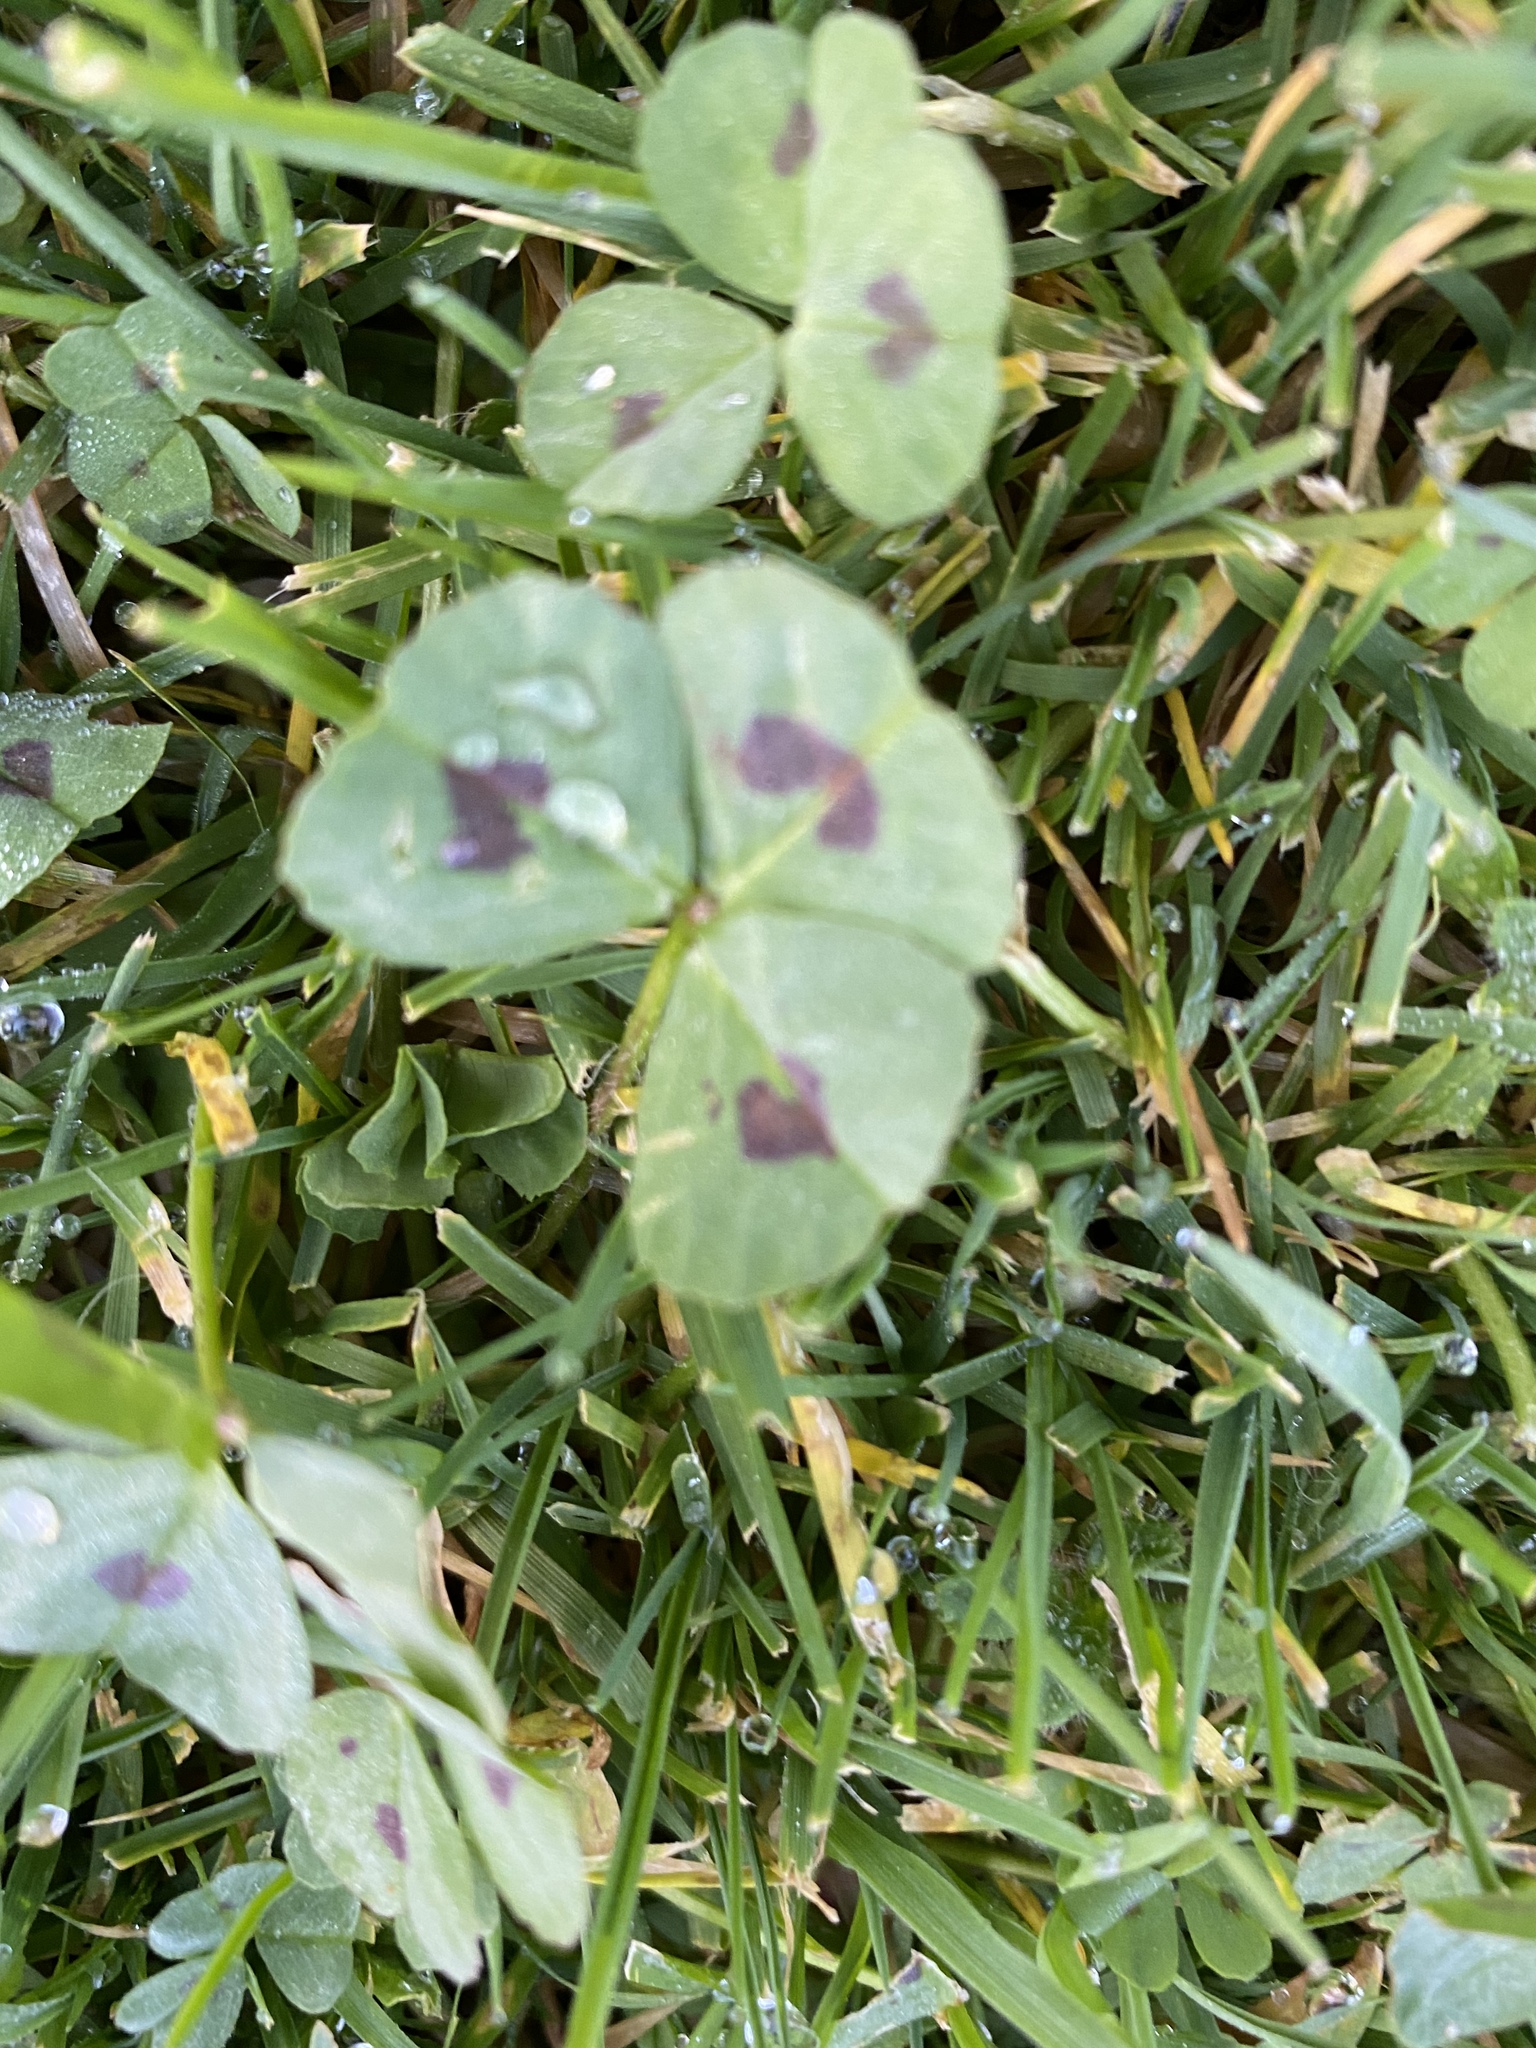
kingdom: Plantae
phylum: Tracheophyta
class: Magnoliopsida
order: Fabales
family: Fabaceae
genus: Medicago
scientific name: Medicago arabica
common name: Spotted medick
